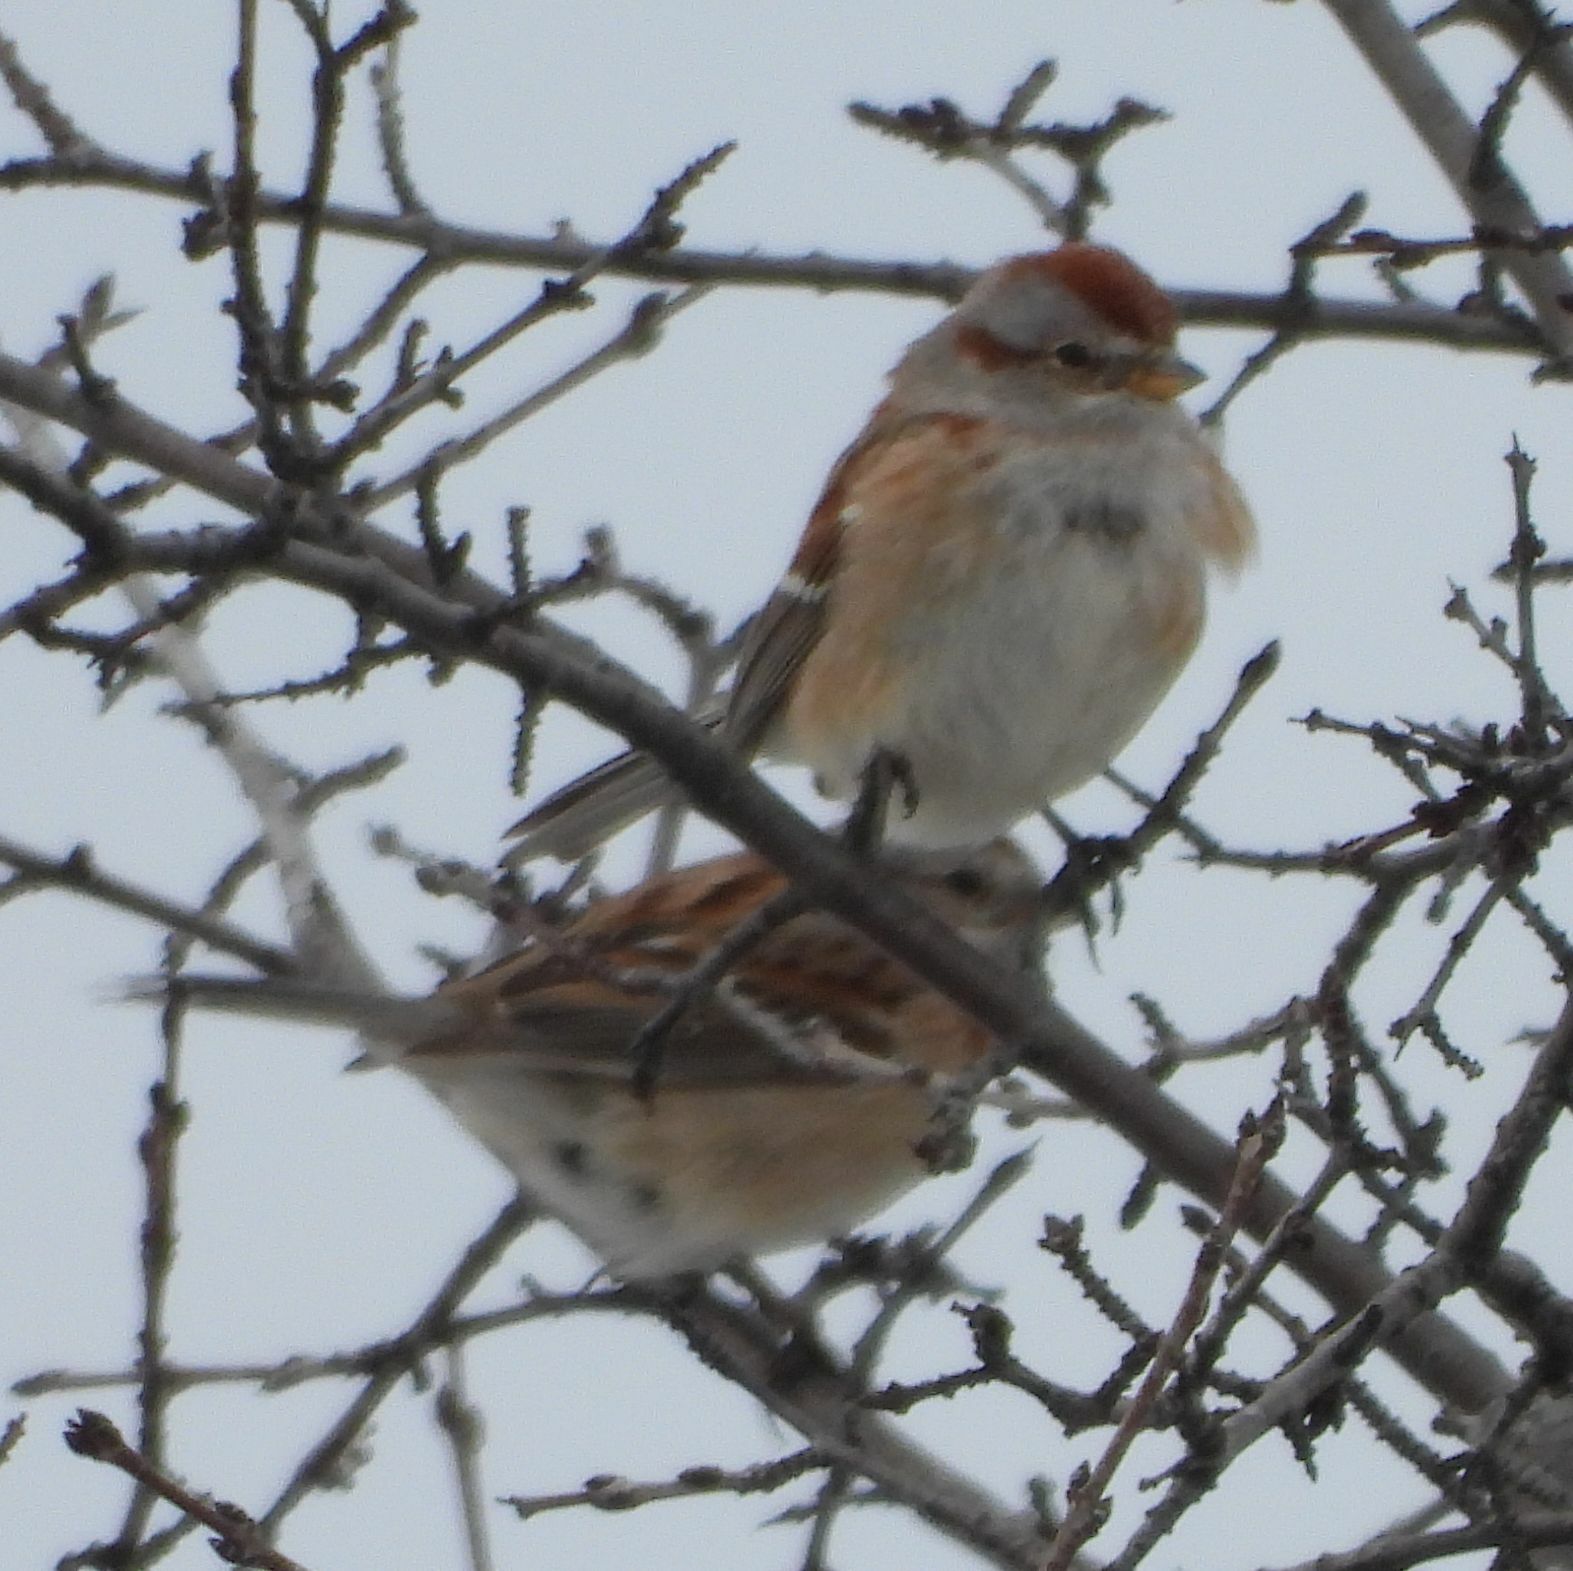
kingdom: Animalia
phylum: Chordata
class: Aves
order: Passeriformes
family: Passerellidae
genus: Spizelloides
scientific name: Spizelloides arborea
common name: American tree sparrow
